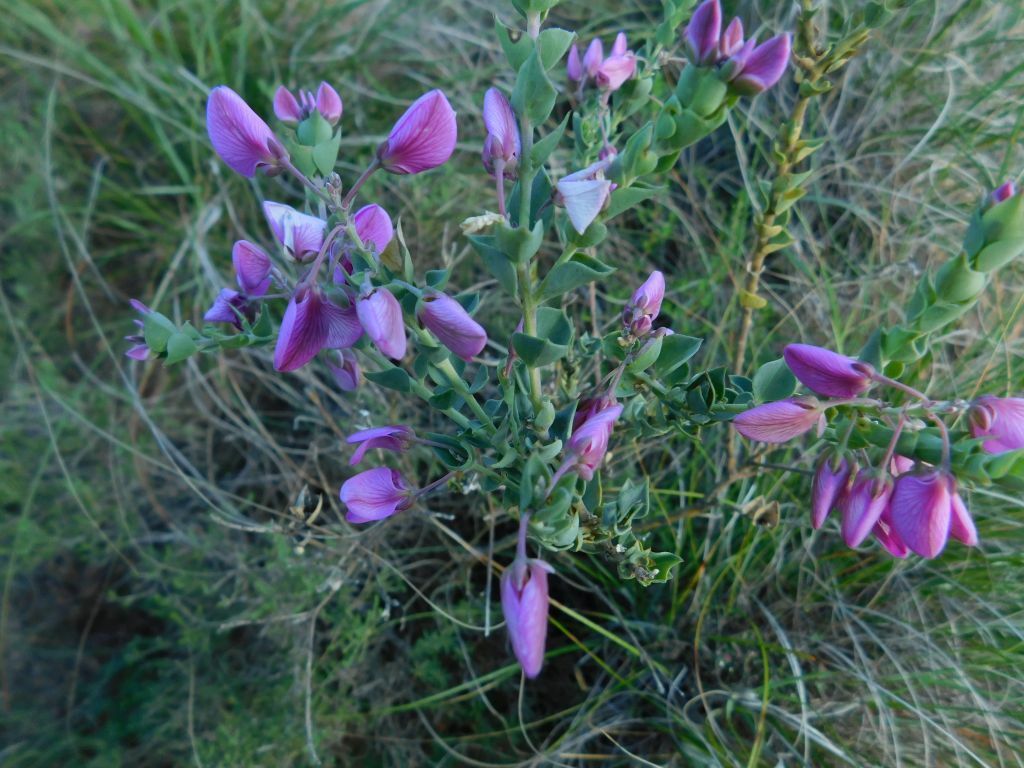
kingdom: Plantae
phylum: Tracheophyta
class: Magnoliopsida
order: Fabales
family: Polygalaceae
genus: Polygala
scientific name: Polygala fruticosa
